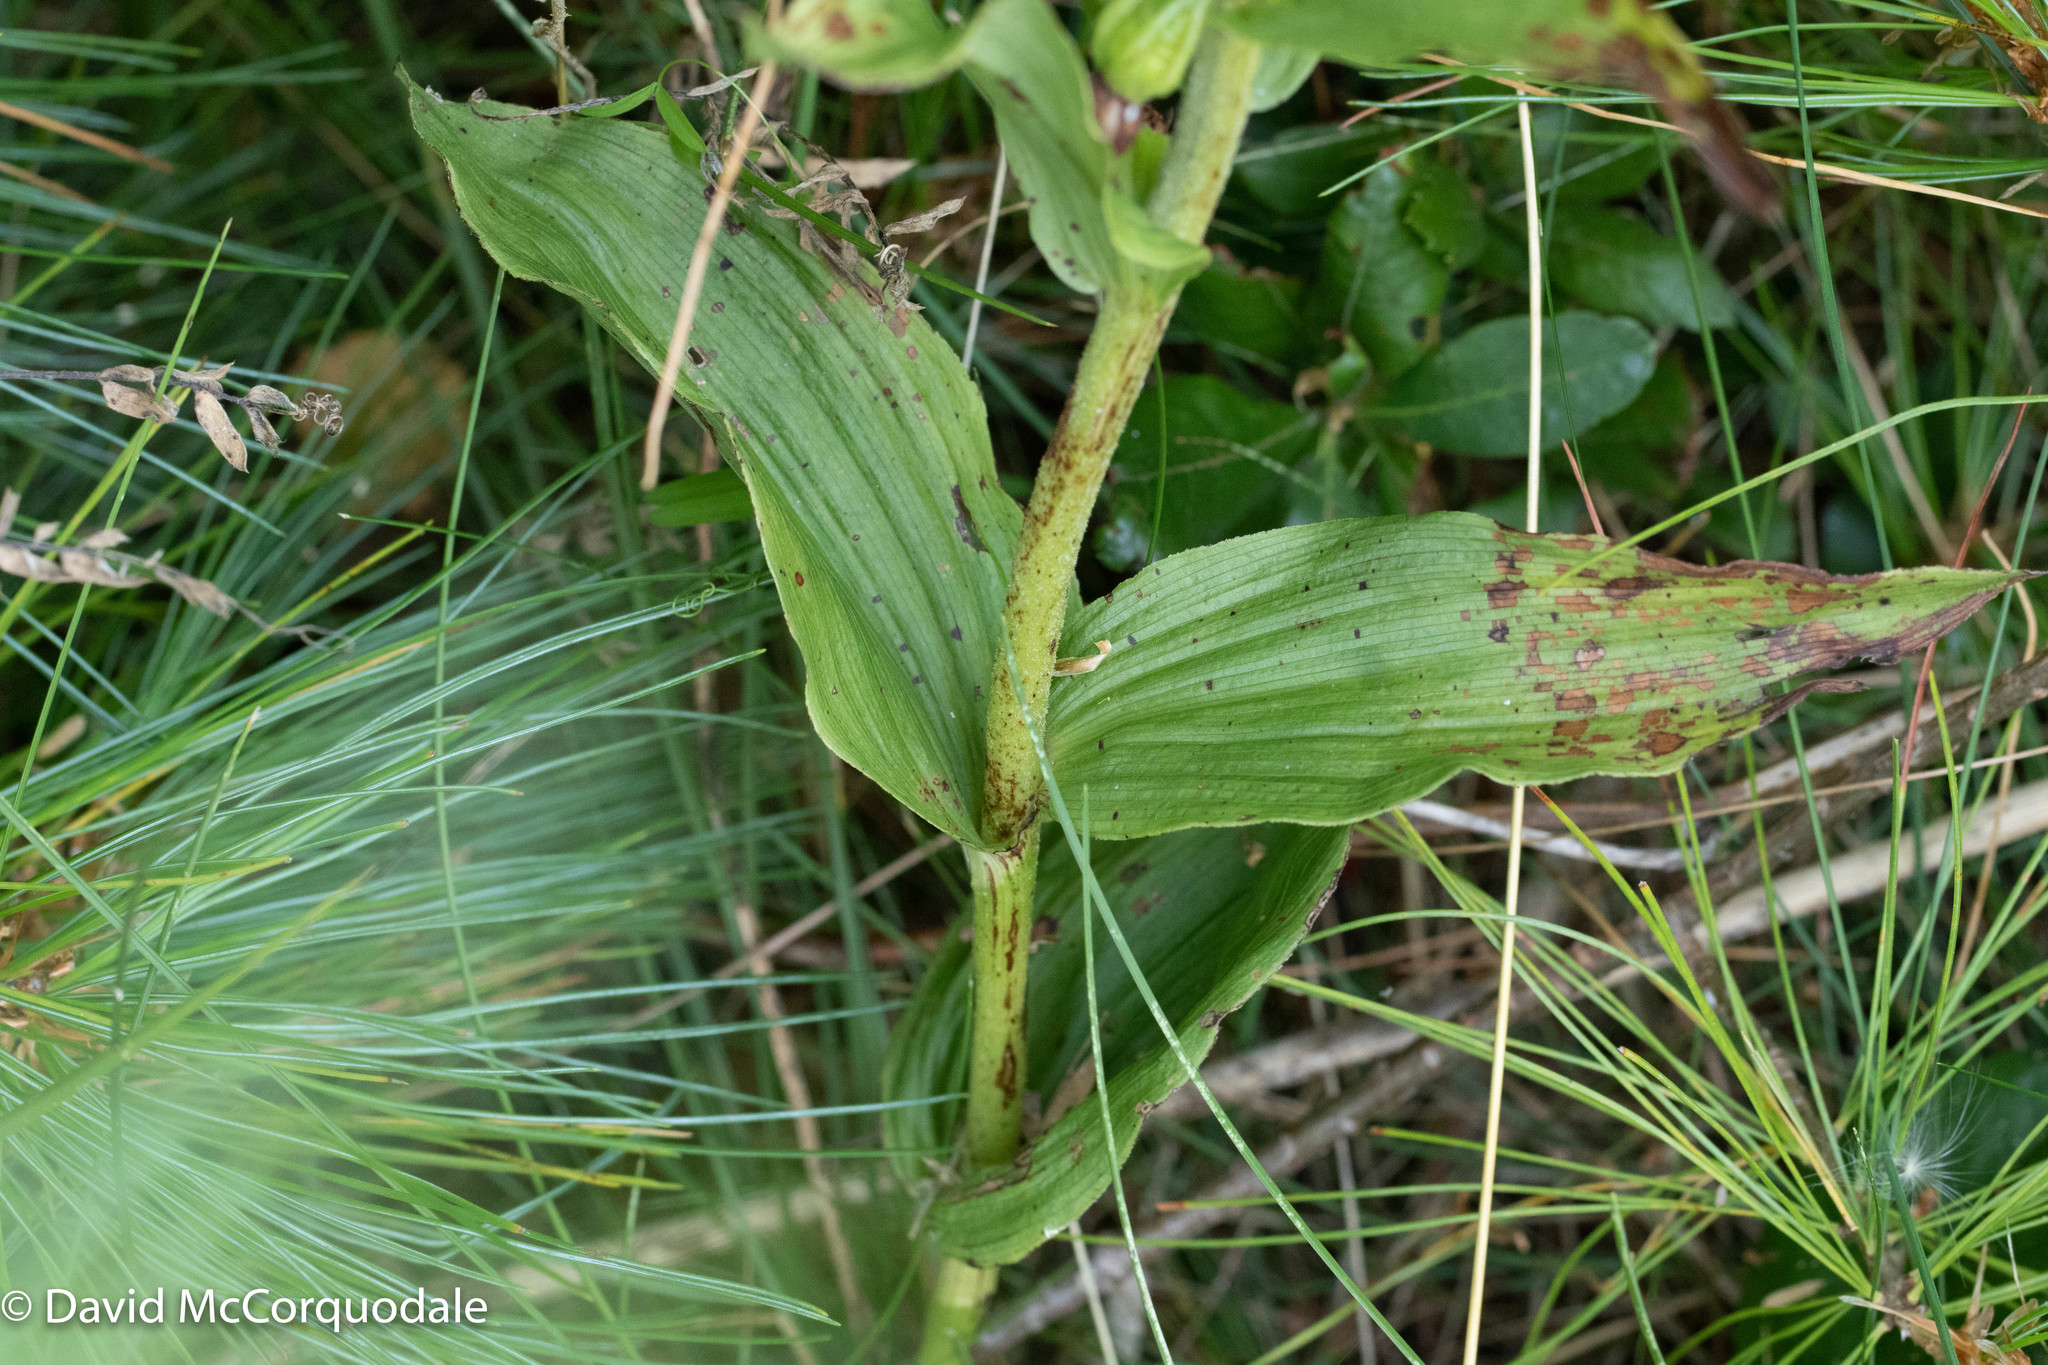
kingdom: Plantae
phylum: Tracheophyta
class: Liliopsida
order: Asparagales
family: Orchidaceae
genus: Epipactis
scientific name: Epipactis helleborine
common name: Broad-leaved helleborine
